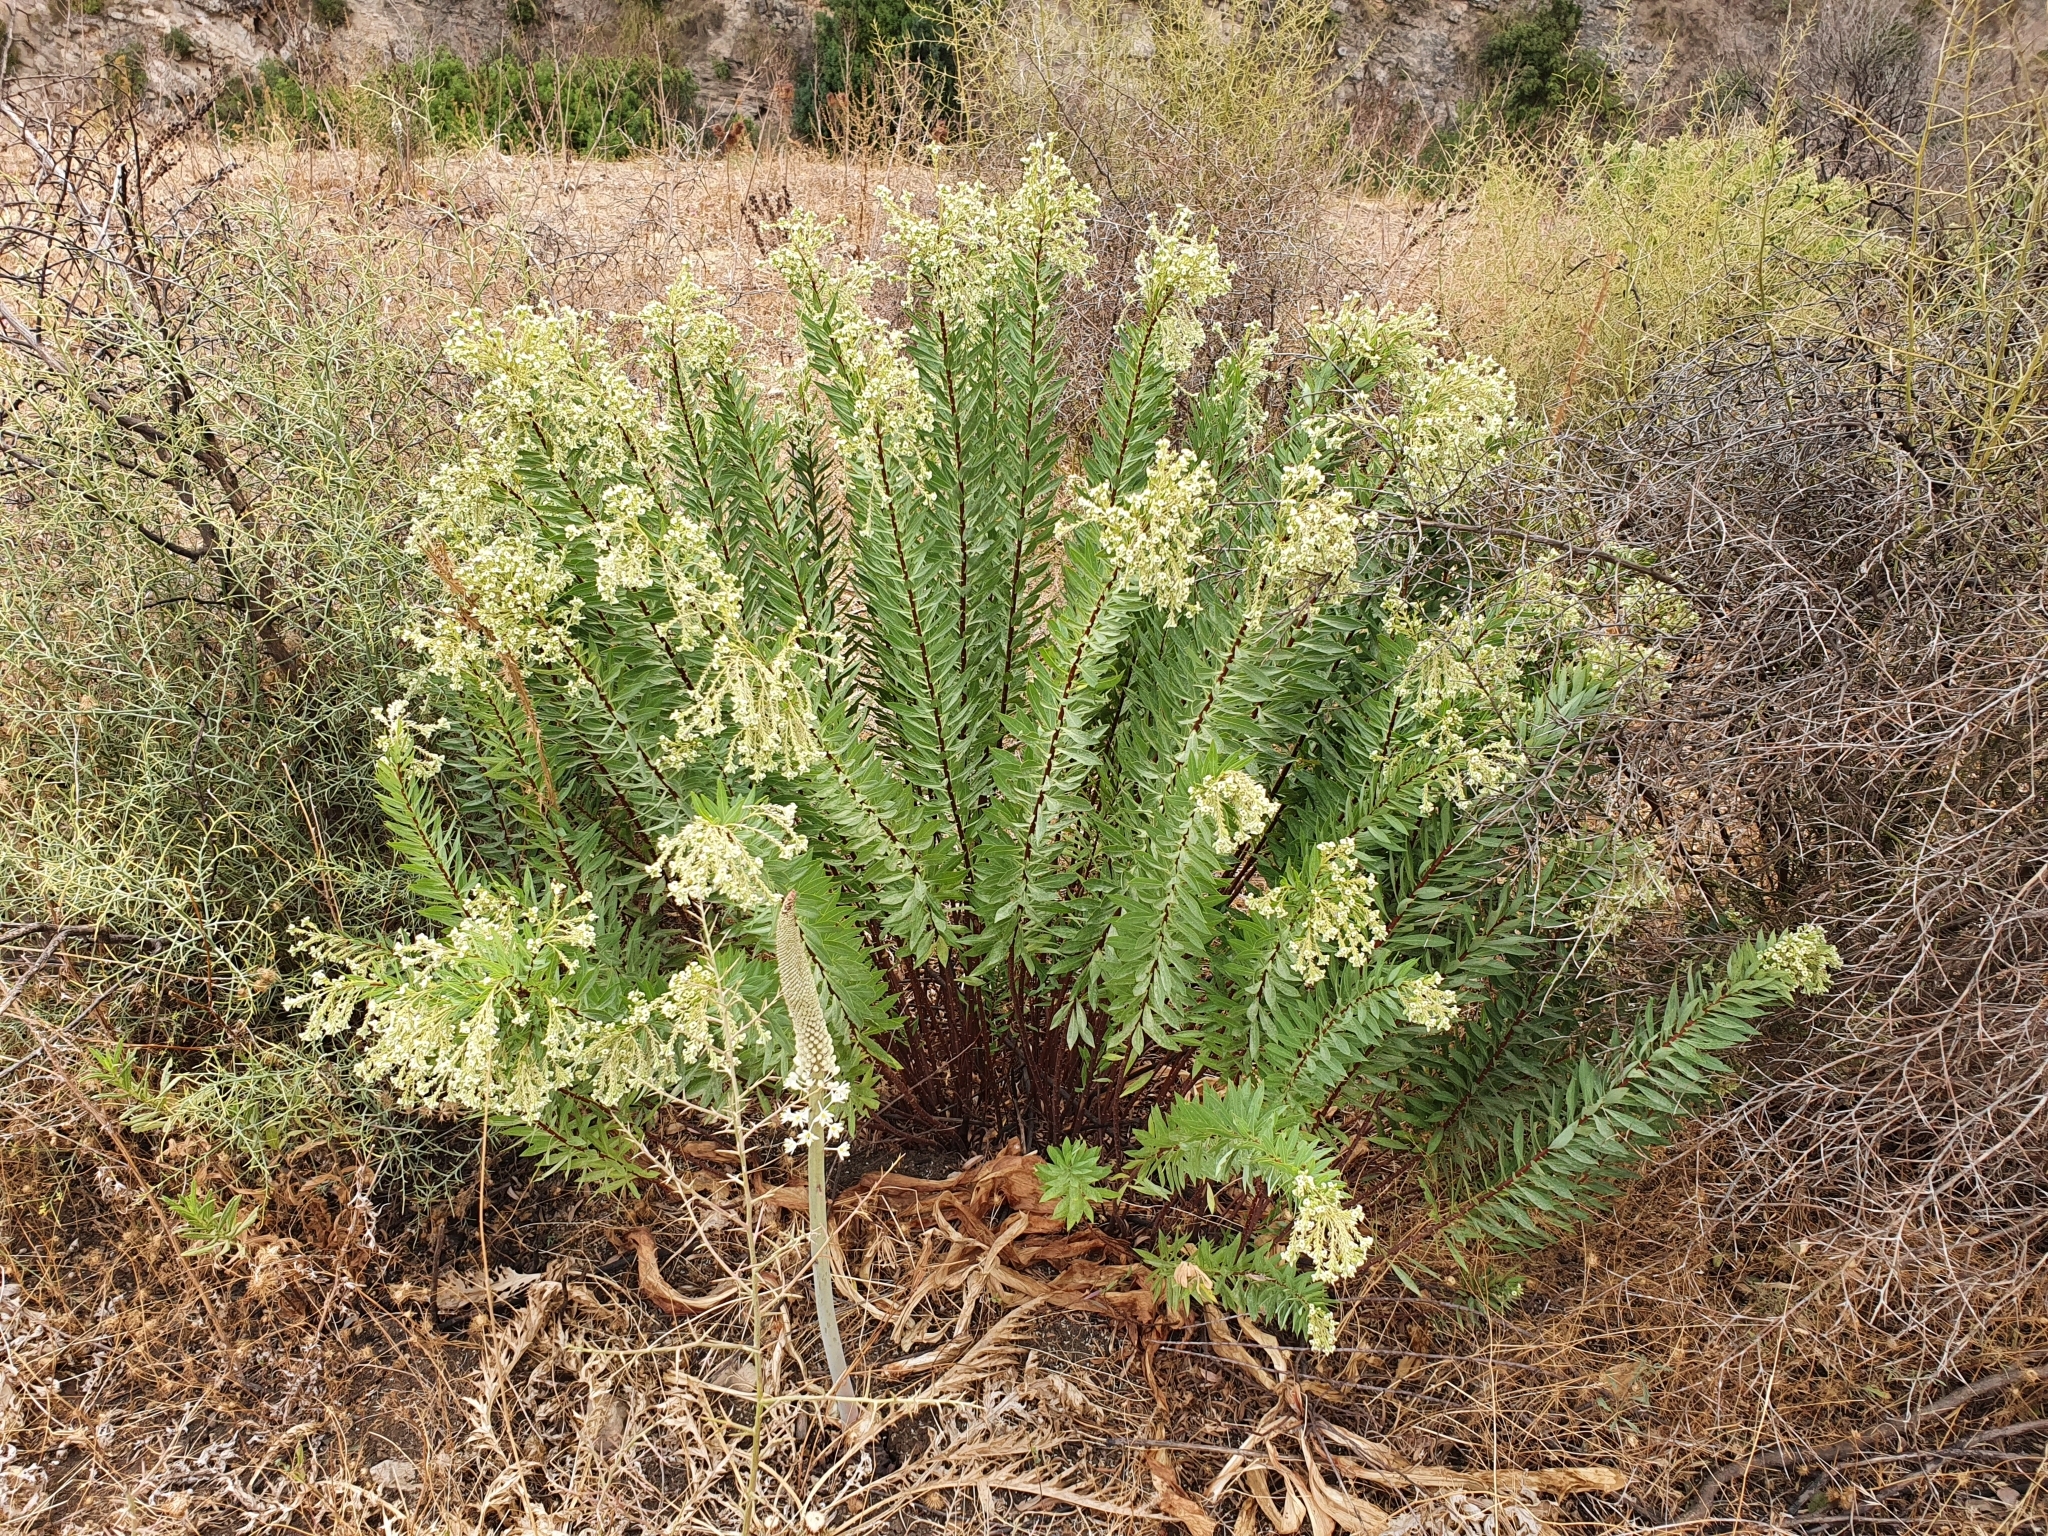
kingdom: Plantae
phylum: Tracheophyta
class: Magnoliopsida
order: Malvales
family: Thymelaeaceae
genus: Daphne
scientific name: Daphne gnidium
